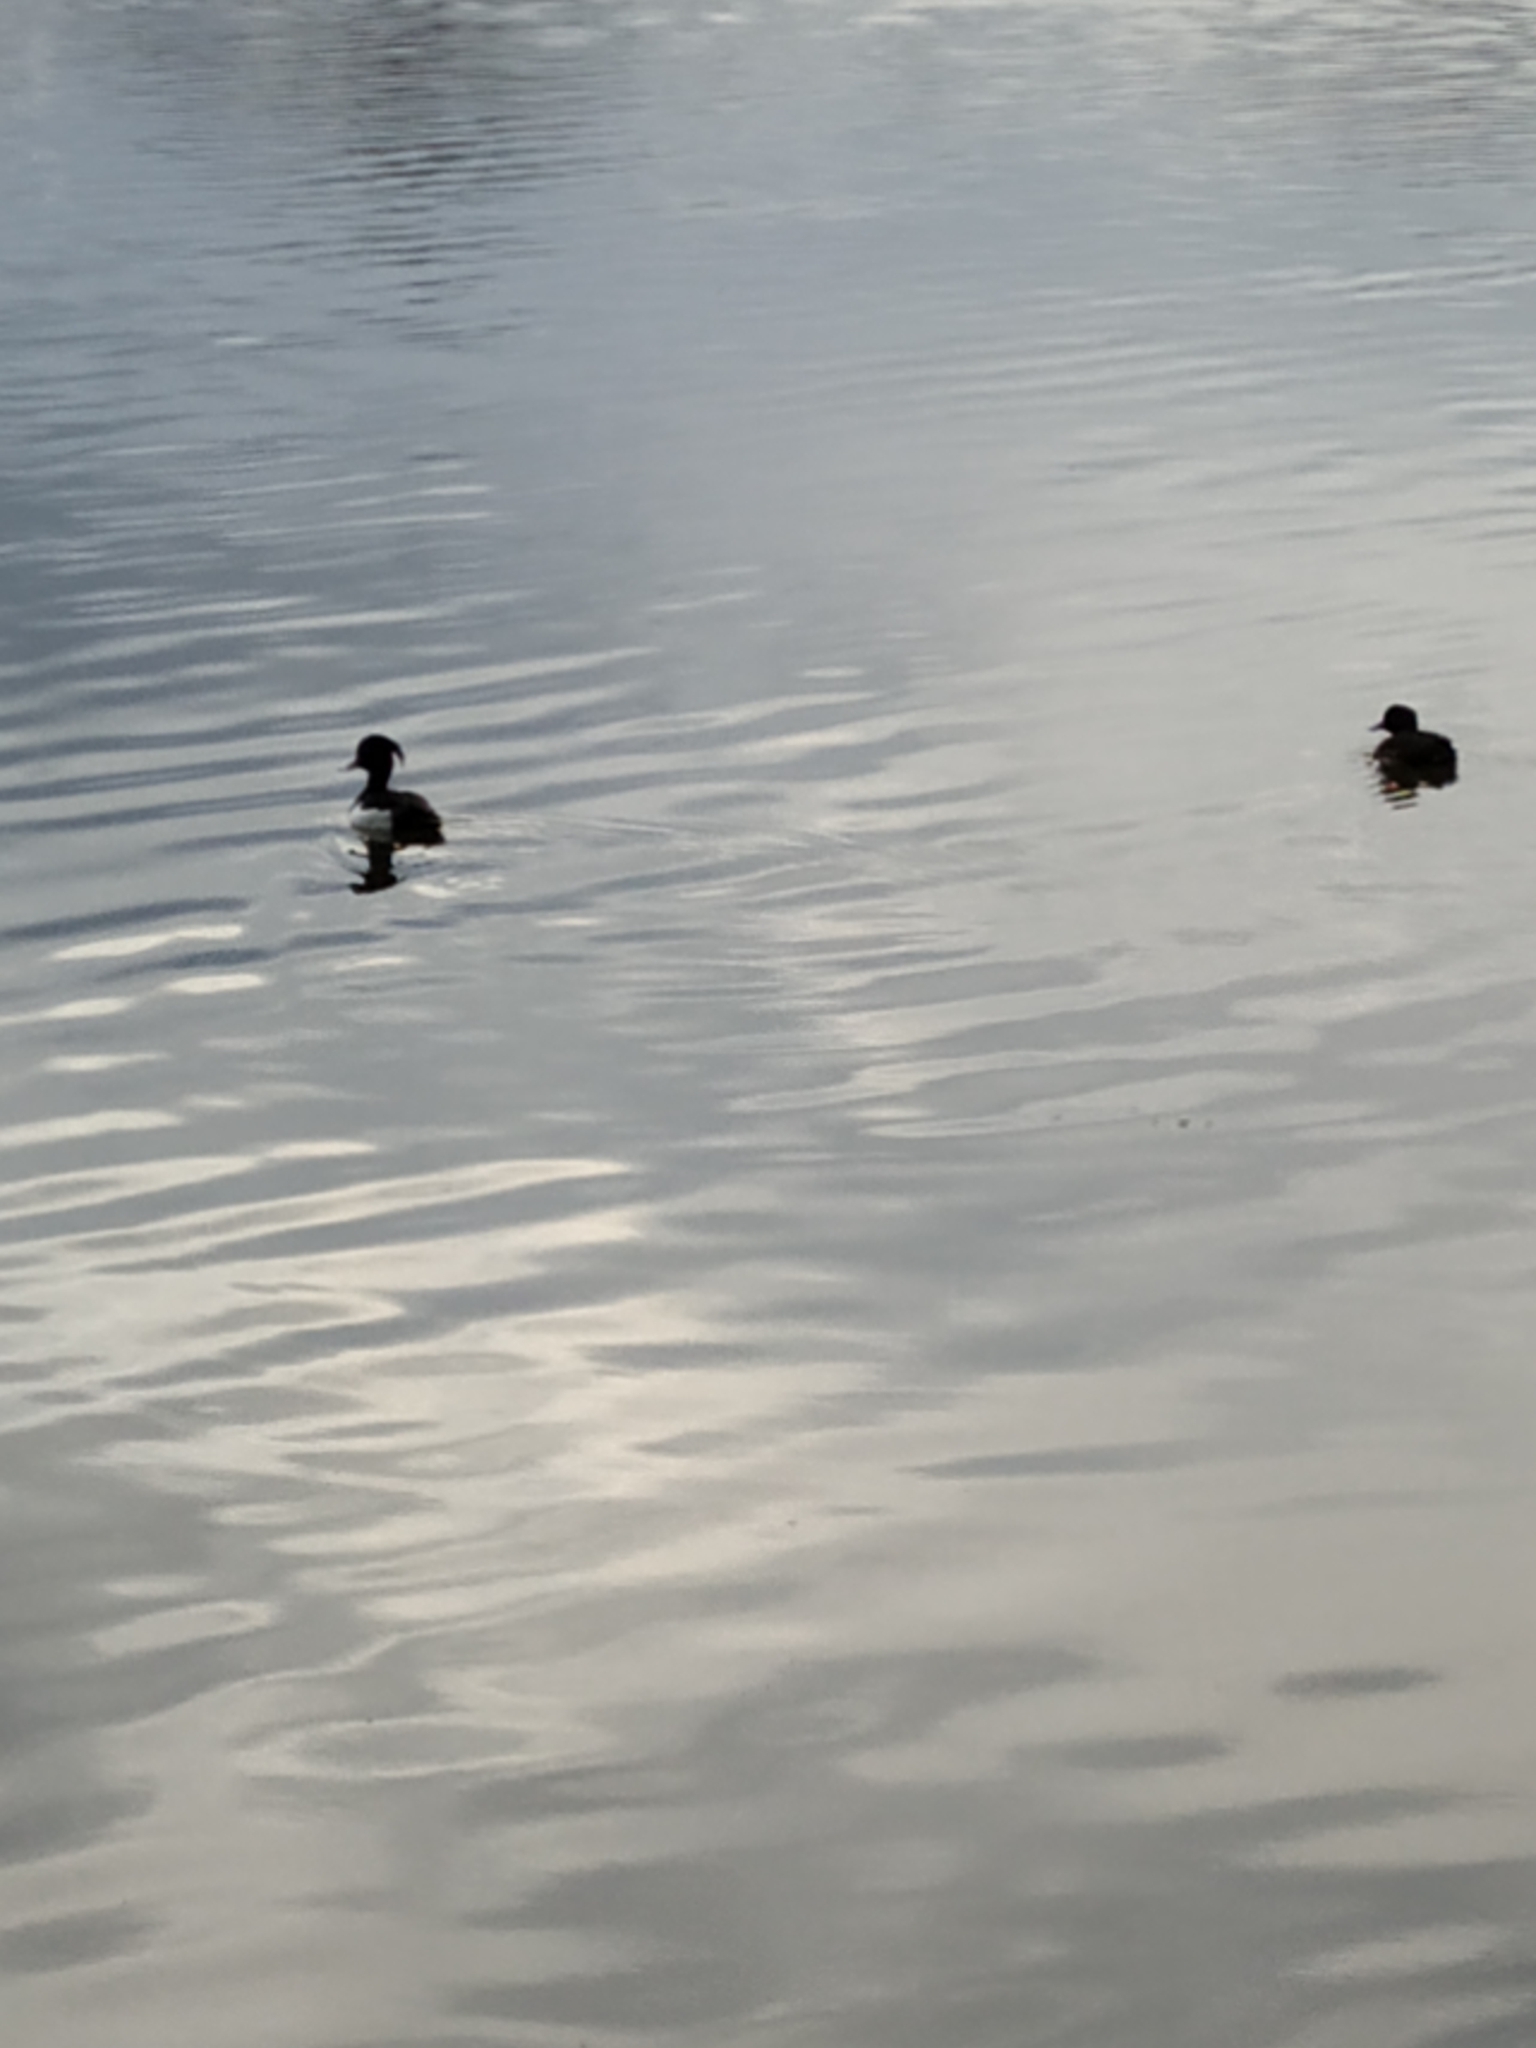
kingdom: Animalia
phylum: Chordata
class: Aves
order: Anseriformes
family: Anatidae
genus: Aythya
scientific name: Aythya fuligula
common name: Tufted duck
